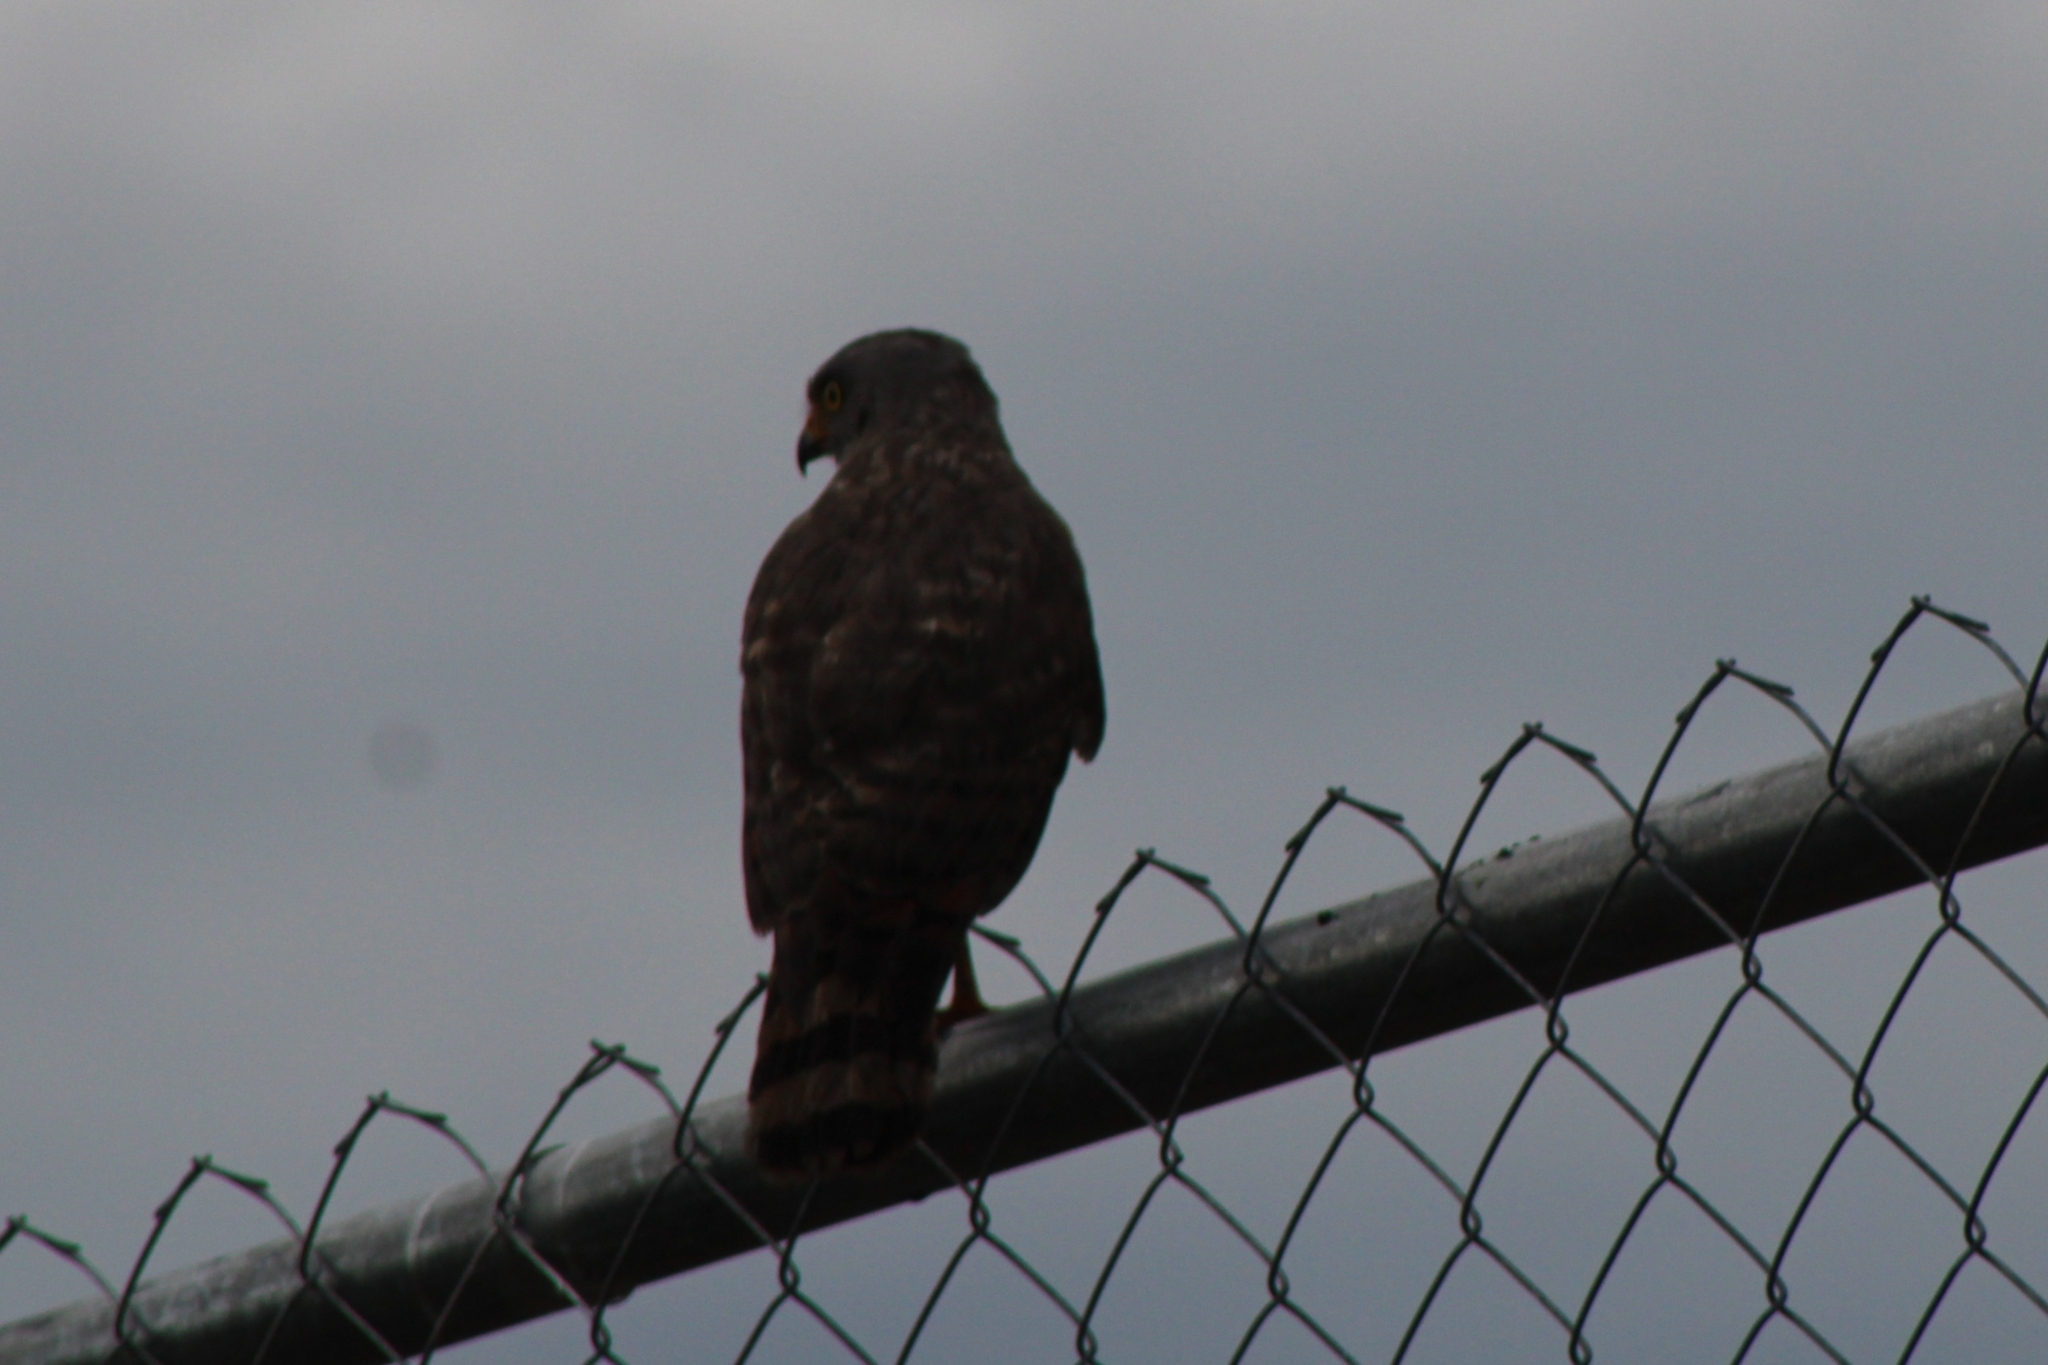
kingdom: Animalia
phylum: Chordata
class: Aves
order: Accipitriformes
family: Accipitridae
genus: Rupornis
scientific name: Rupornis magnirostris
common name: Roadside hawk
